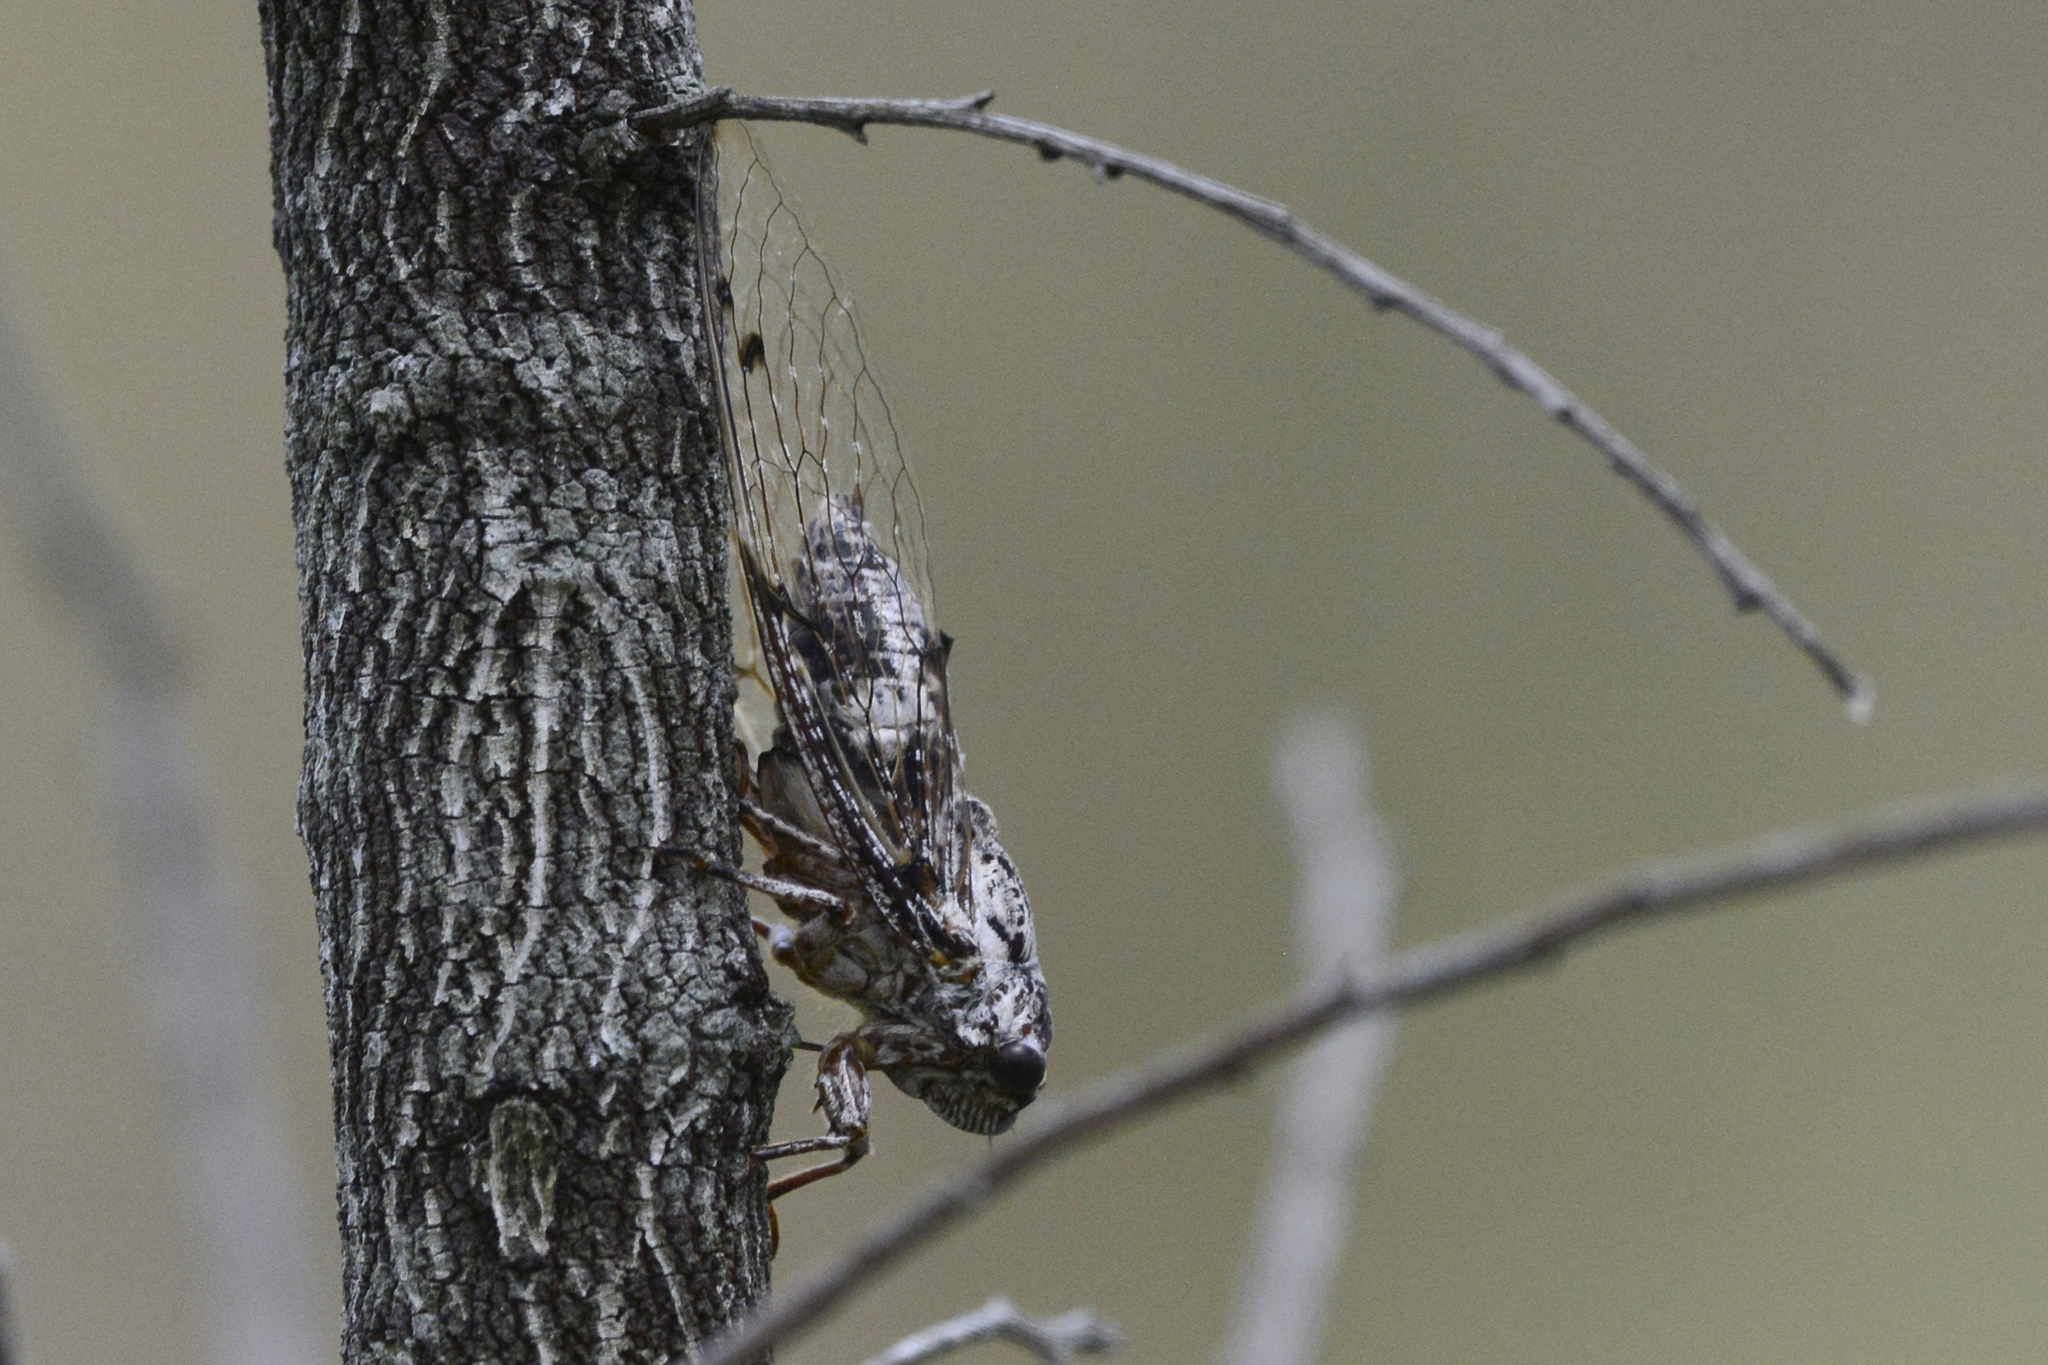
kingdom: Animalia
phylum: Arthropoda
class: Insecta
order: Hemiptera
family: Cicadidae
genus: Aleeta
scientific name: Aleeta curvicosta
